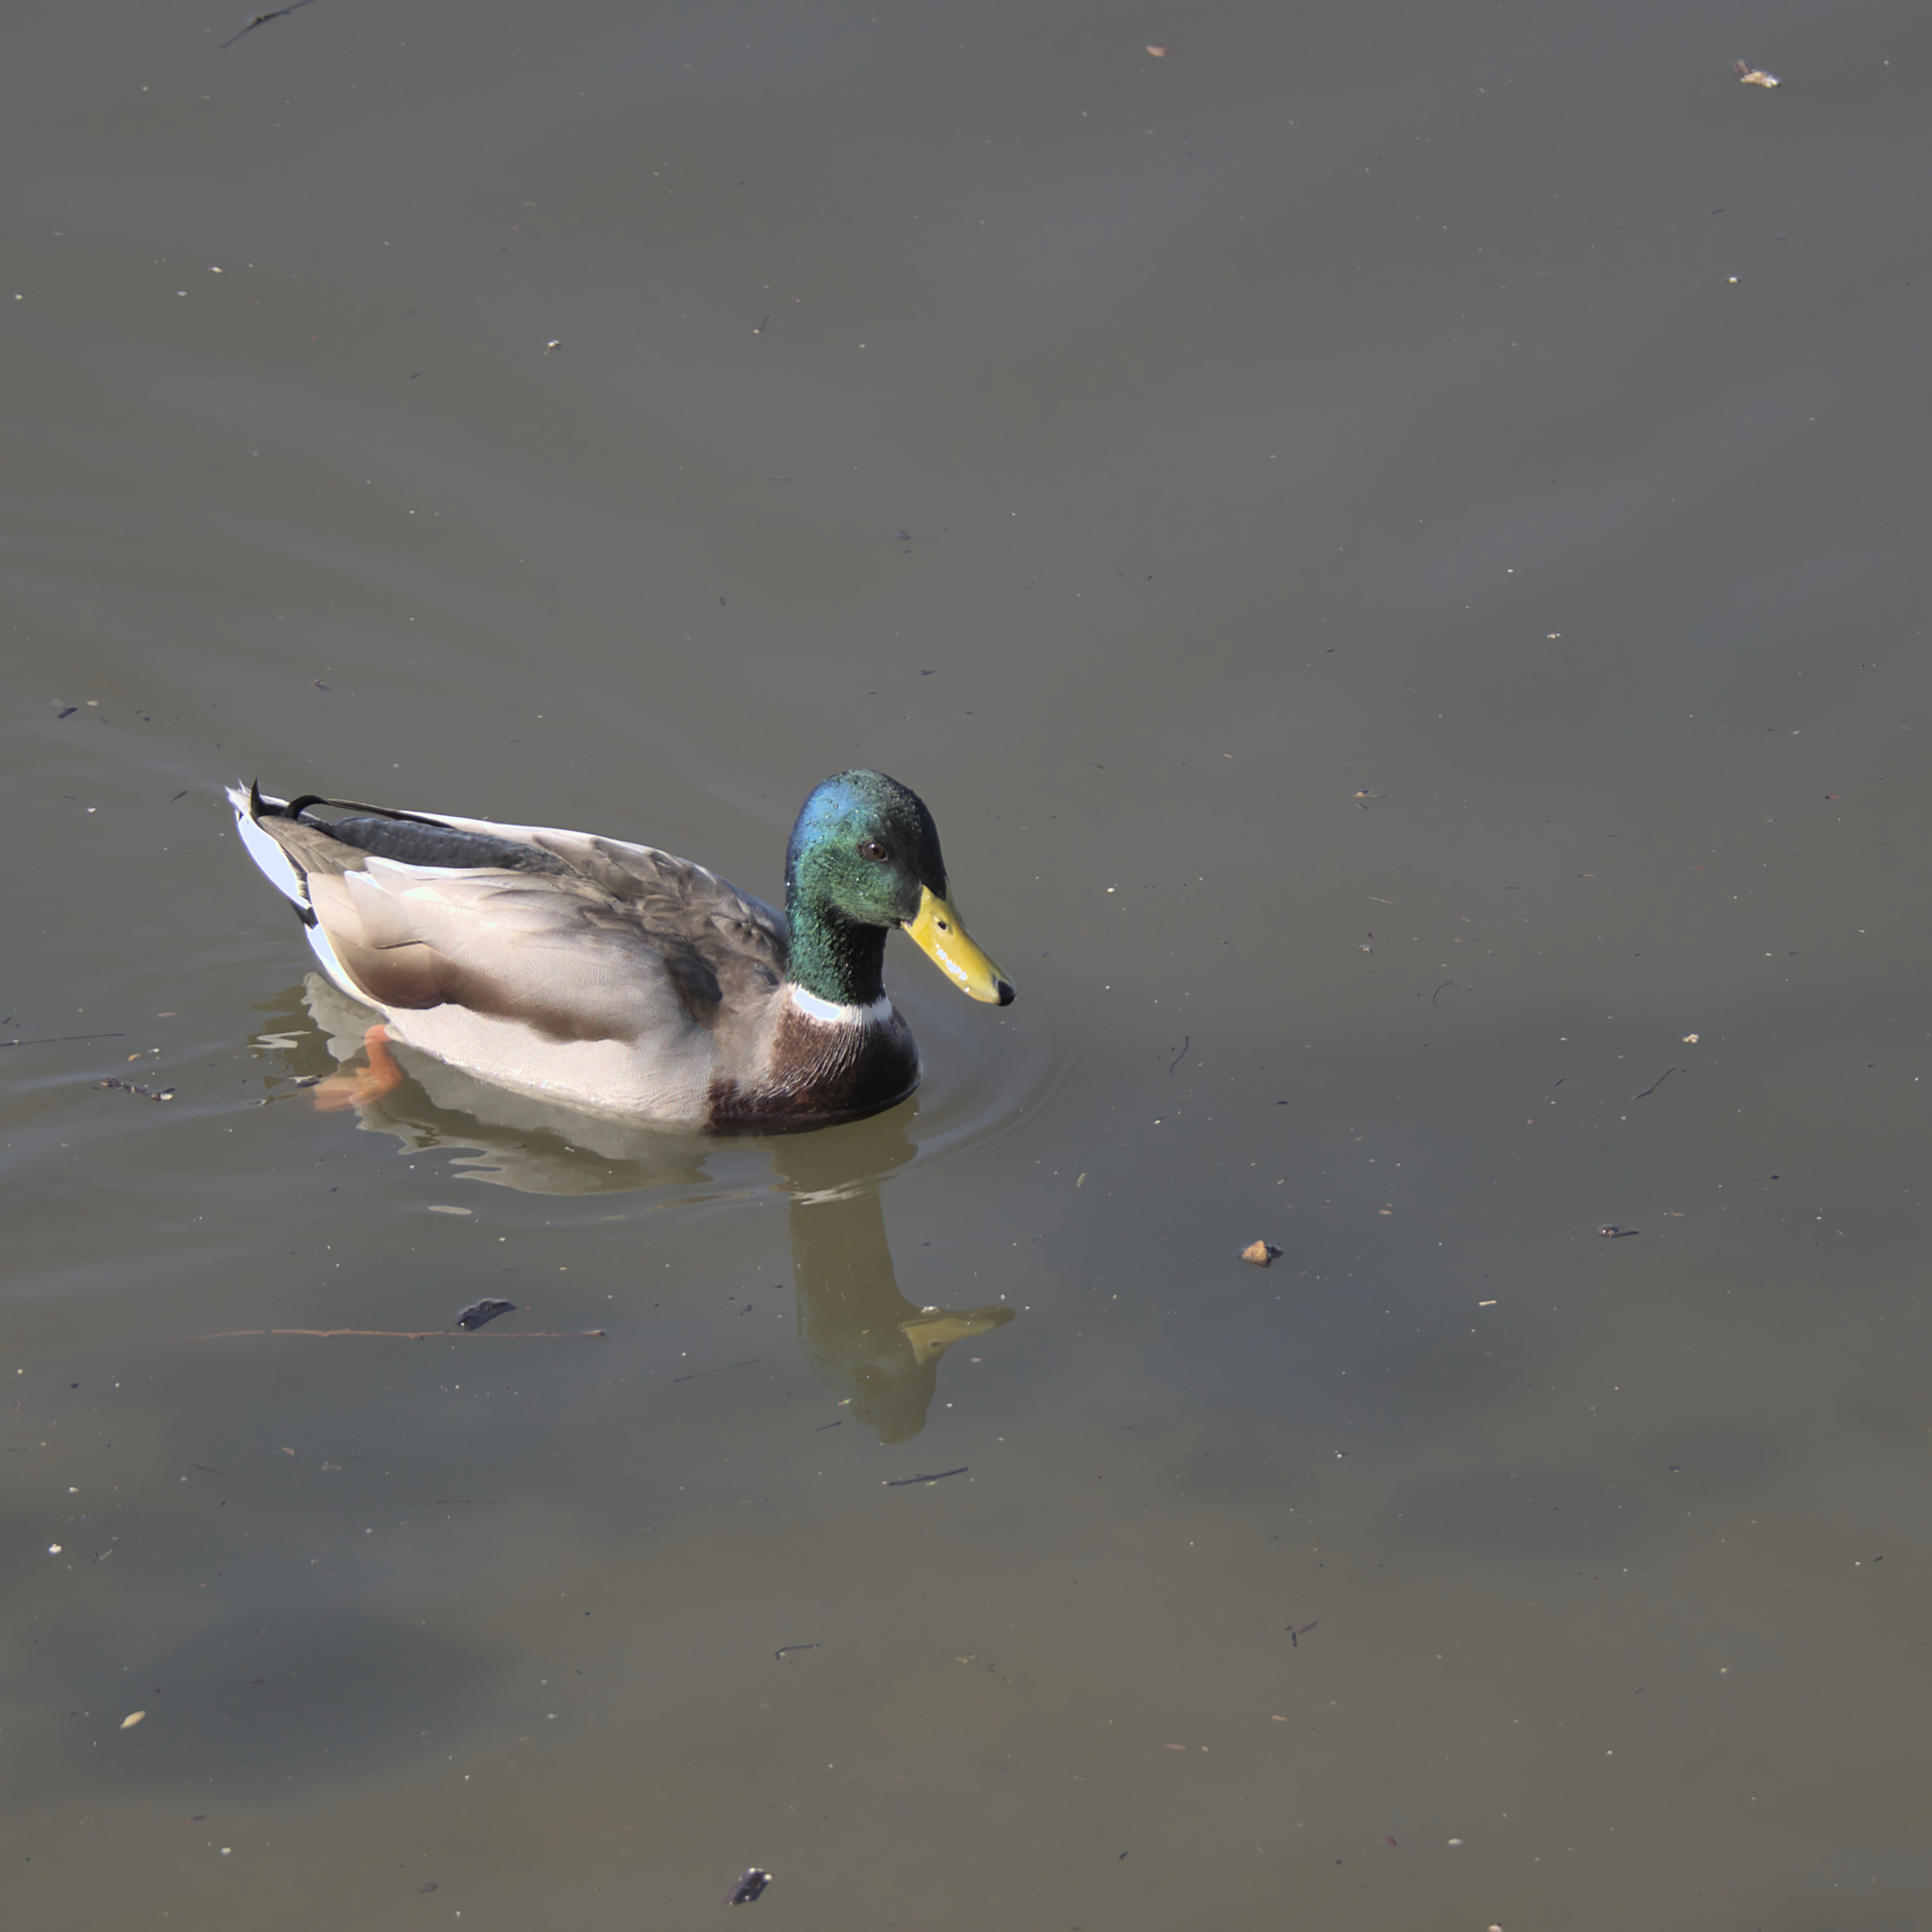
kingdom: Animalia
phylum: Chordata
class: Aves
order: Anseriformes
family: Anatidae
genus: Anas
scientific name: Anas platyrhynchos
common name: Mallard
